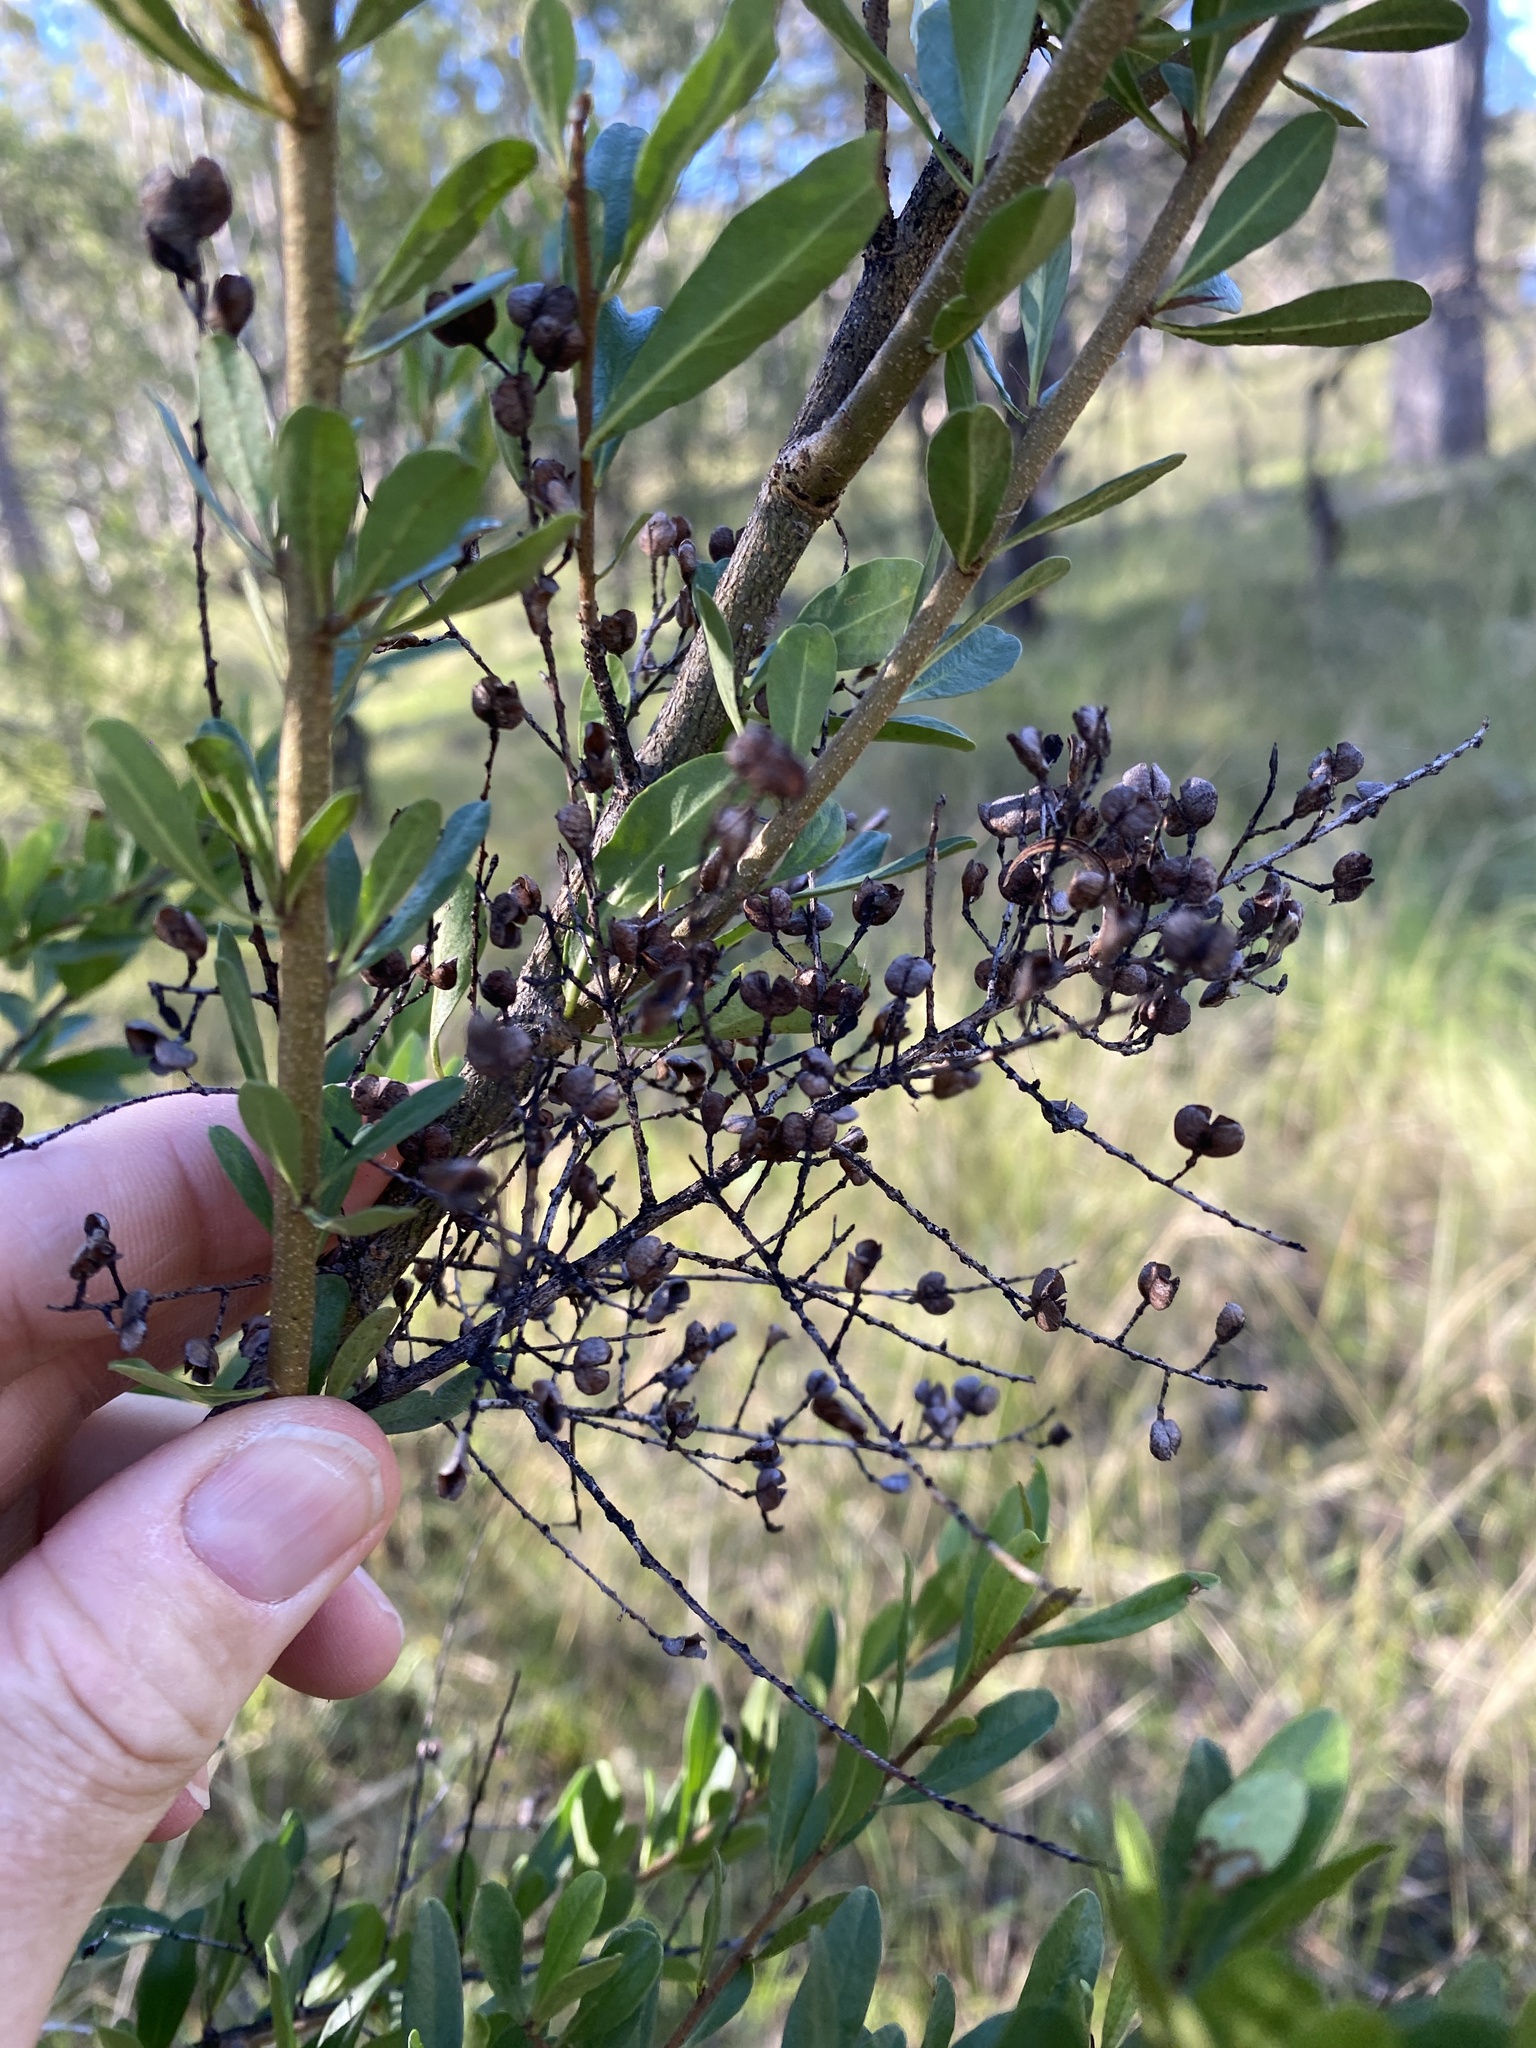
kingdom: Plantae
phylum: Tracheophyta
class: Magnoliopsida
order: Apiales
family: Pittosporaceae
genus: Bursaria
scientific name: Bursaria spinosa
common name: Australian blackthorn
